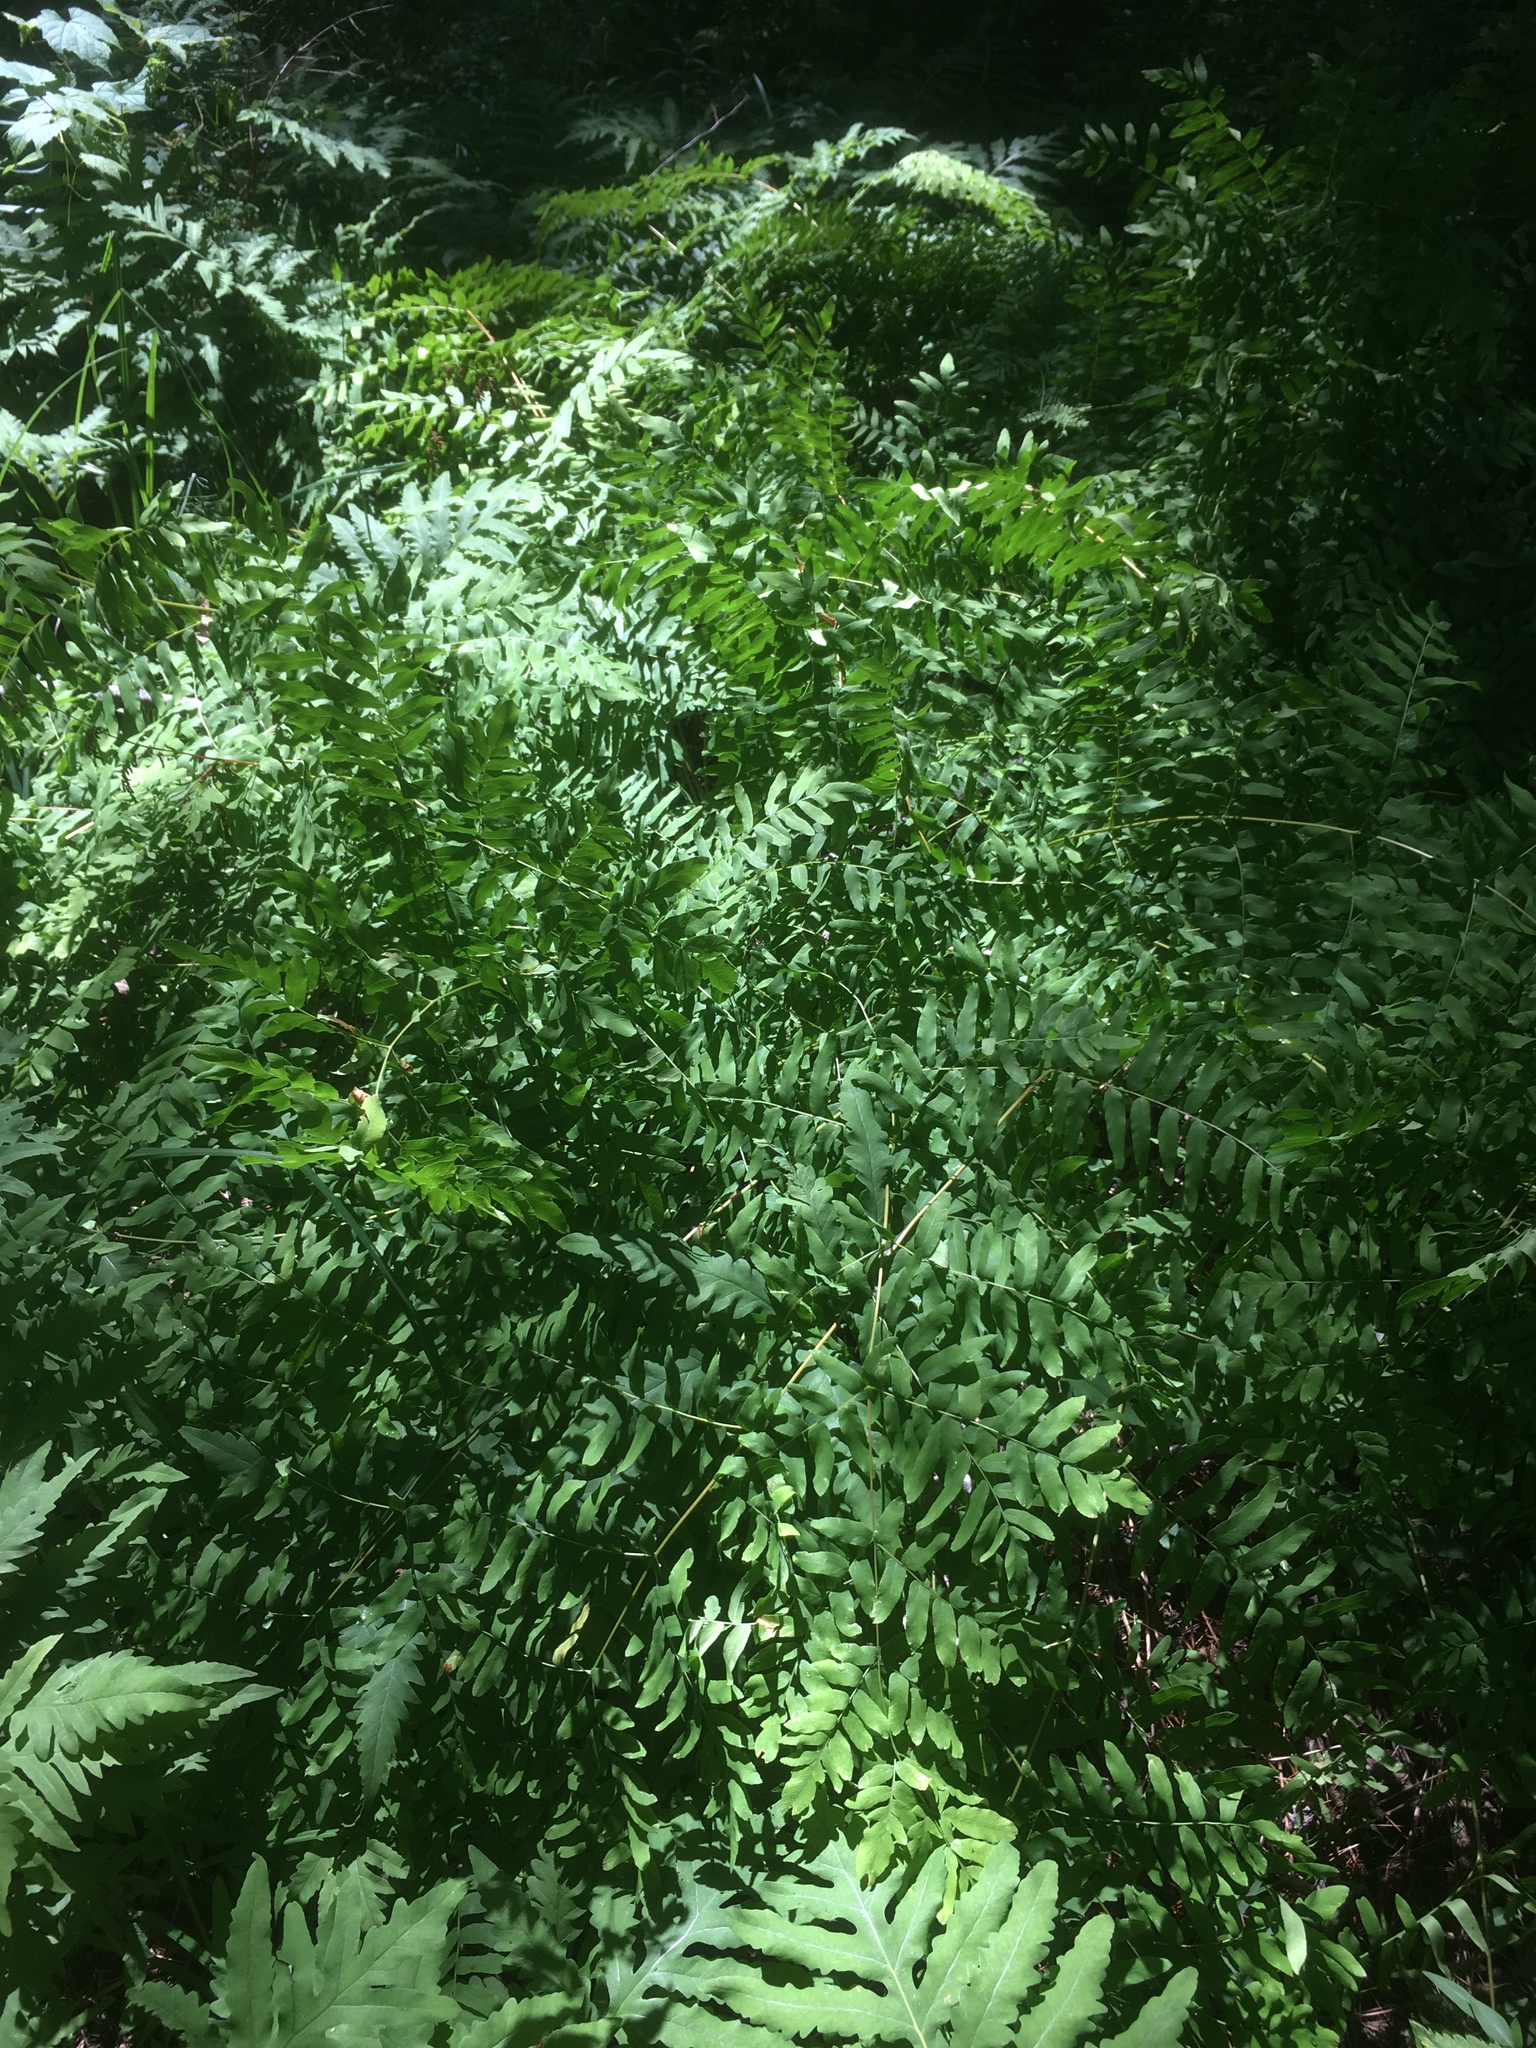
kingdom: Plantae
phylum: Tracheophyta
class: Polypodiopsida
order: Osmundales
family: Osmundaceae
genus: Osmunda
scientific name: Osmunda spectabilis
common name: American royal fern
